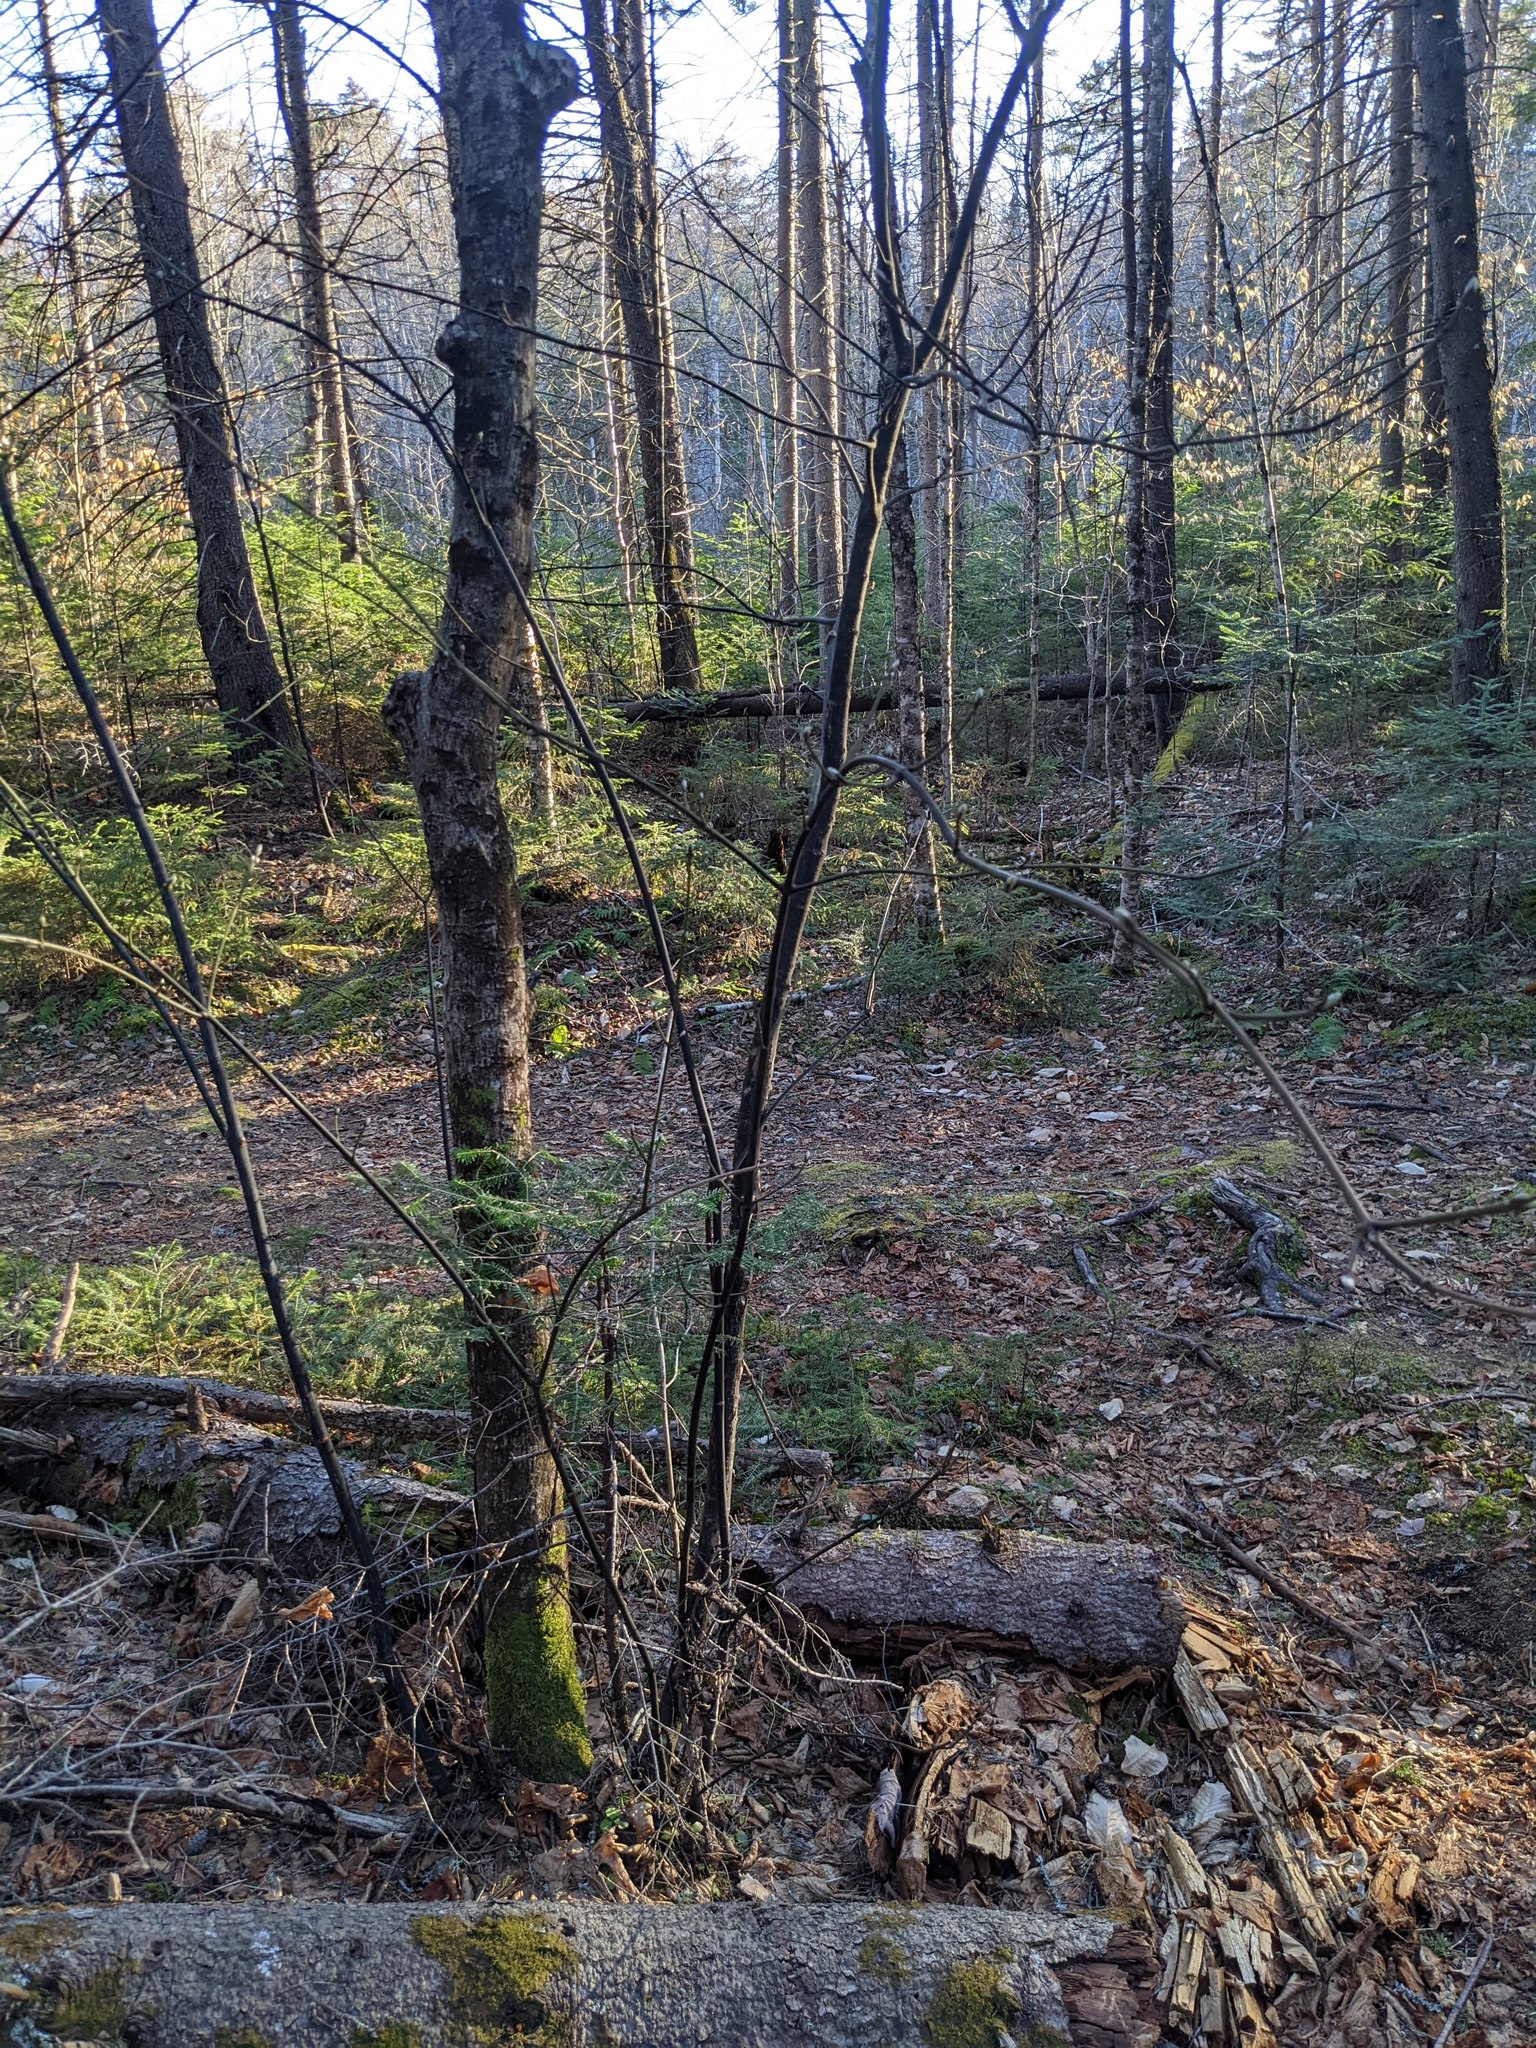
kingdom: Plantae
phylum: Tracheophyta
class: Magnoliopsida
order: Sapindales
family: Sapindaceae
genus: Acer
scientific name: Acer pensylvanicum
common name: Moosewood
